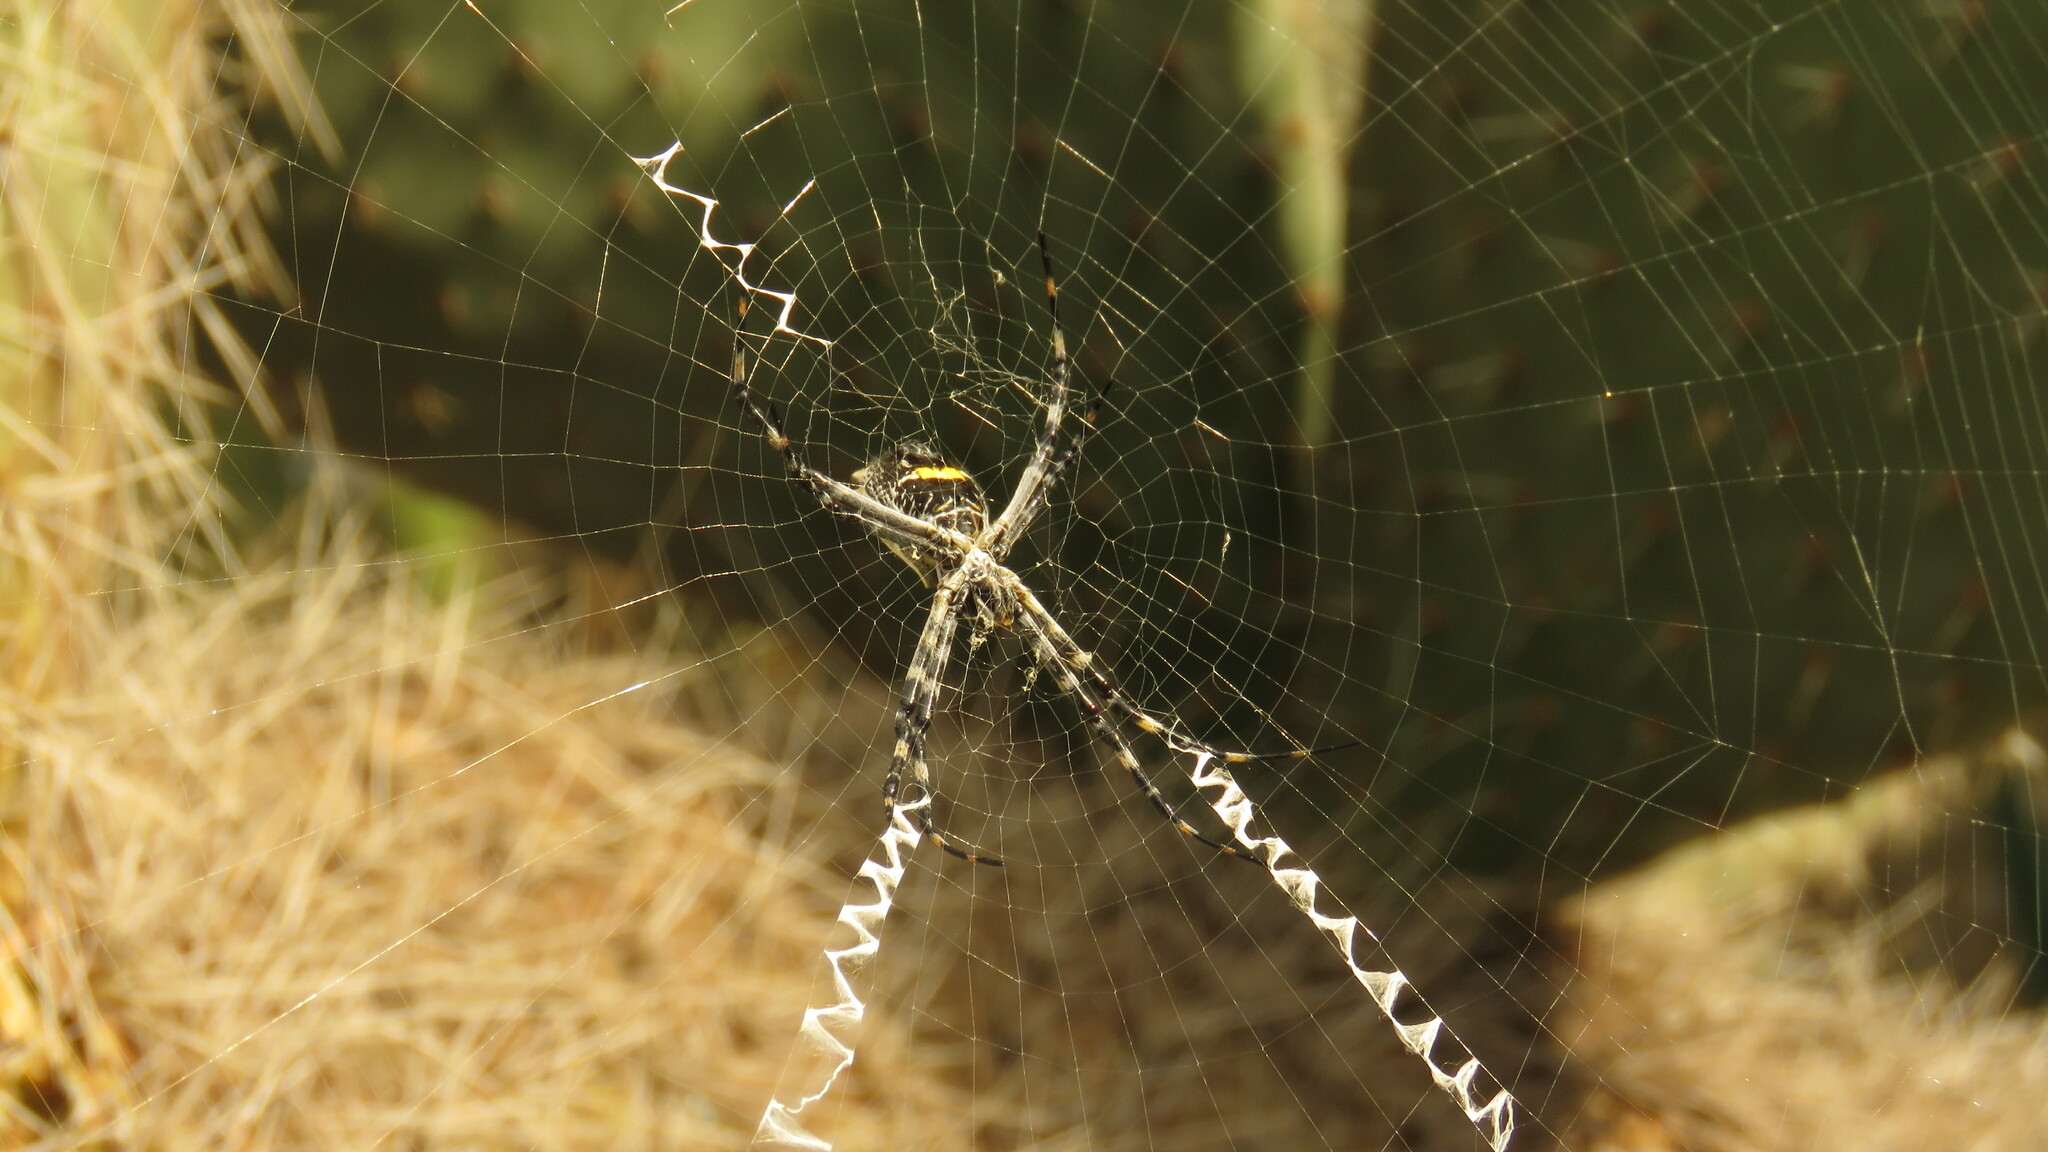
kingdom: Animalia
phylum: Arthropoda
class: Arachnida
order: Araneae
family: Araneidae
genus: Argiope
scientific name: Argiope argentata
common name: Orb weavers
